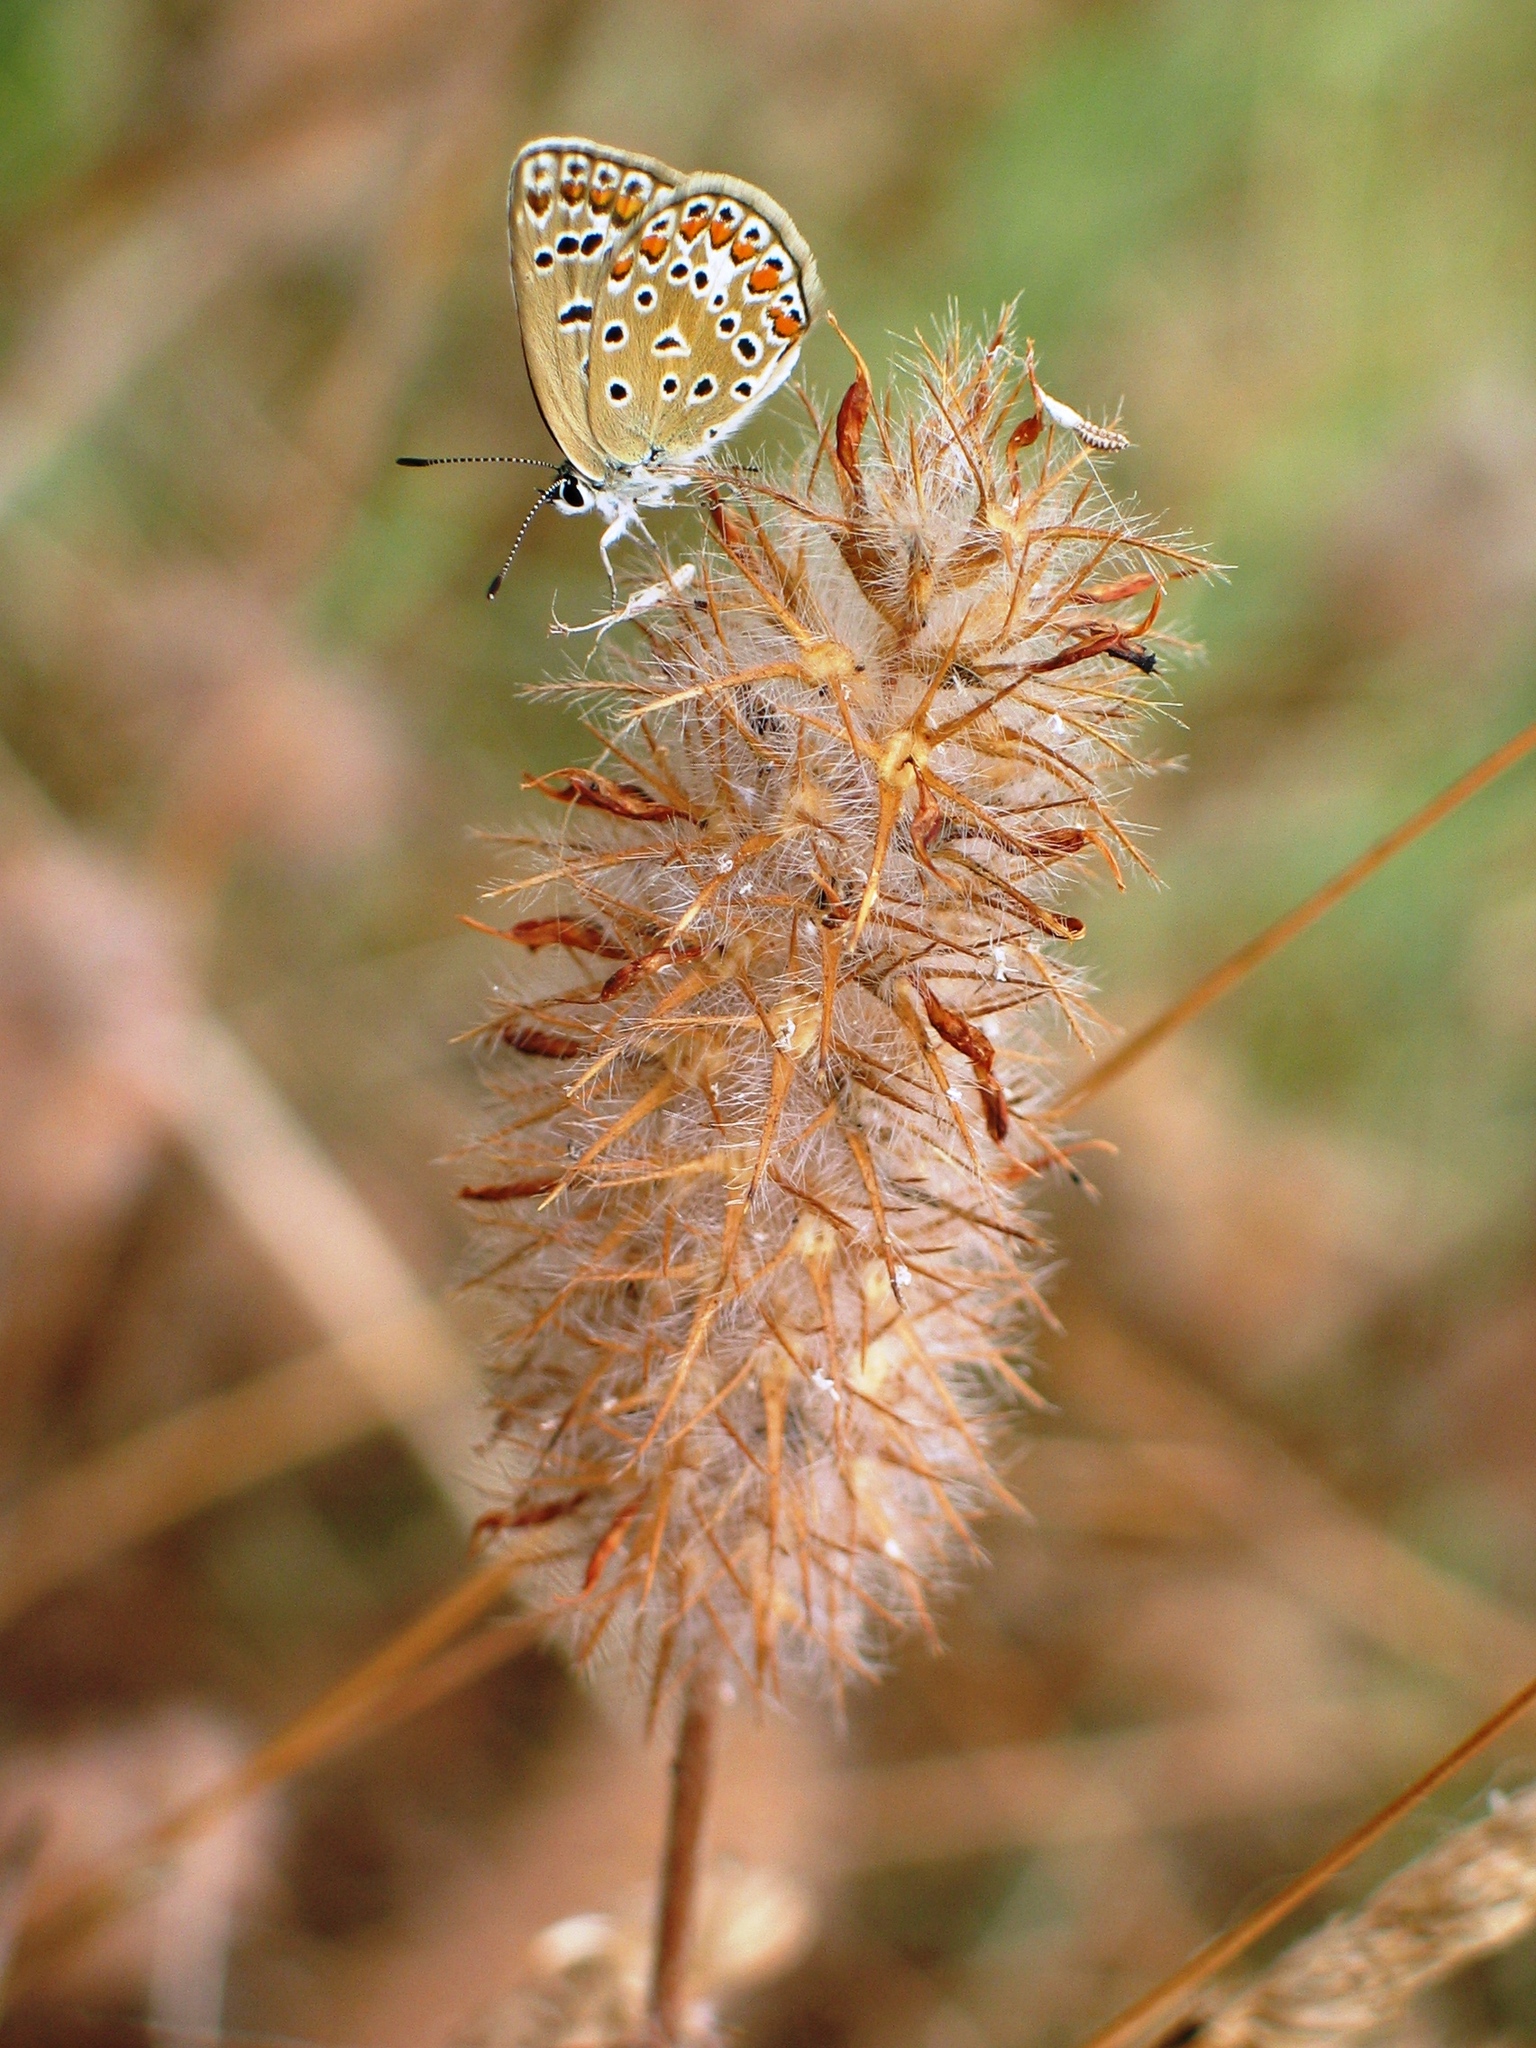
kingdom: Animalia
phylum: Arthropoda
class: Insecta
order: Lepidoptera
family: Lycaenidae
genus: Polyommatus
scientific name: Polyommatus icarus
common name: Common blue
